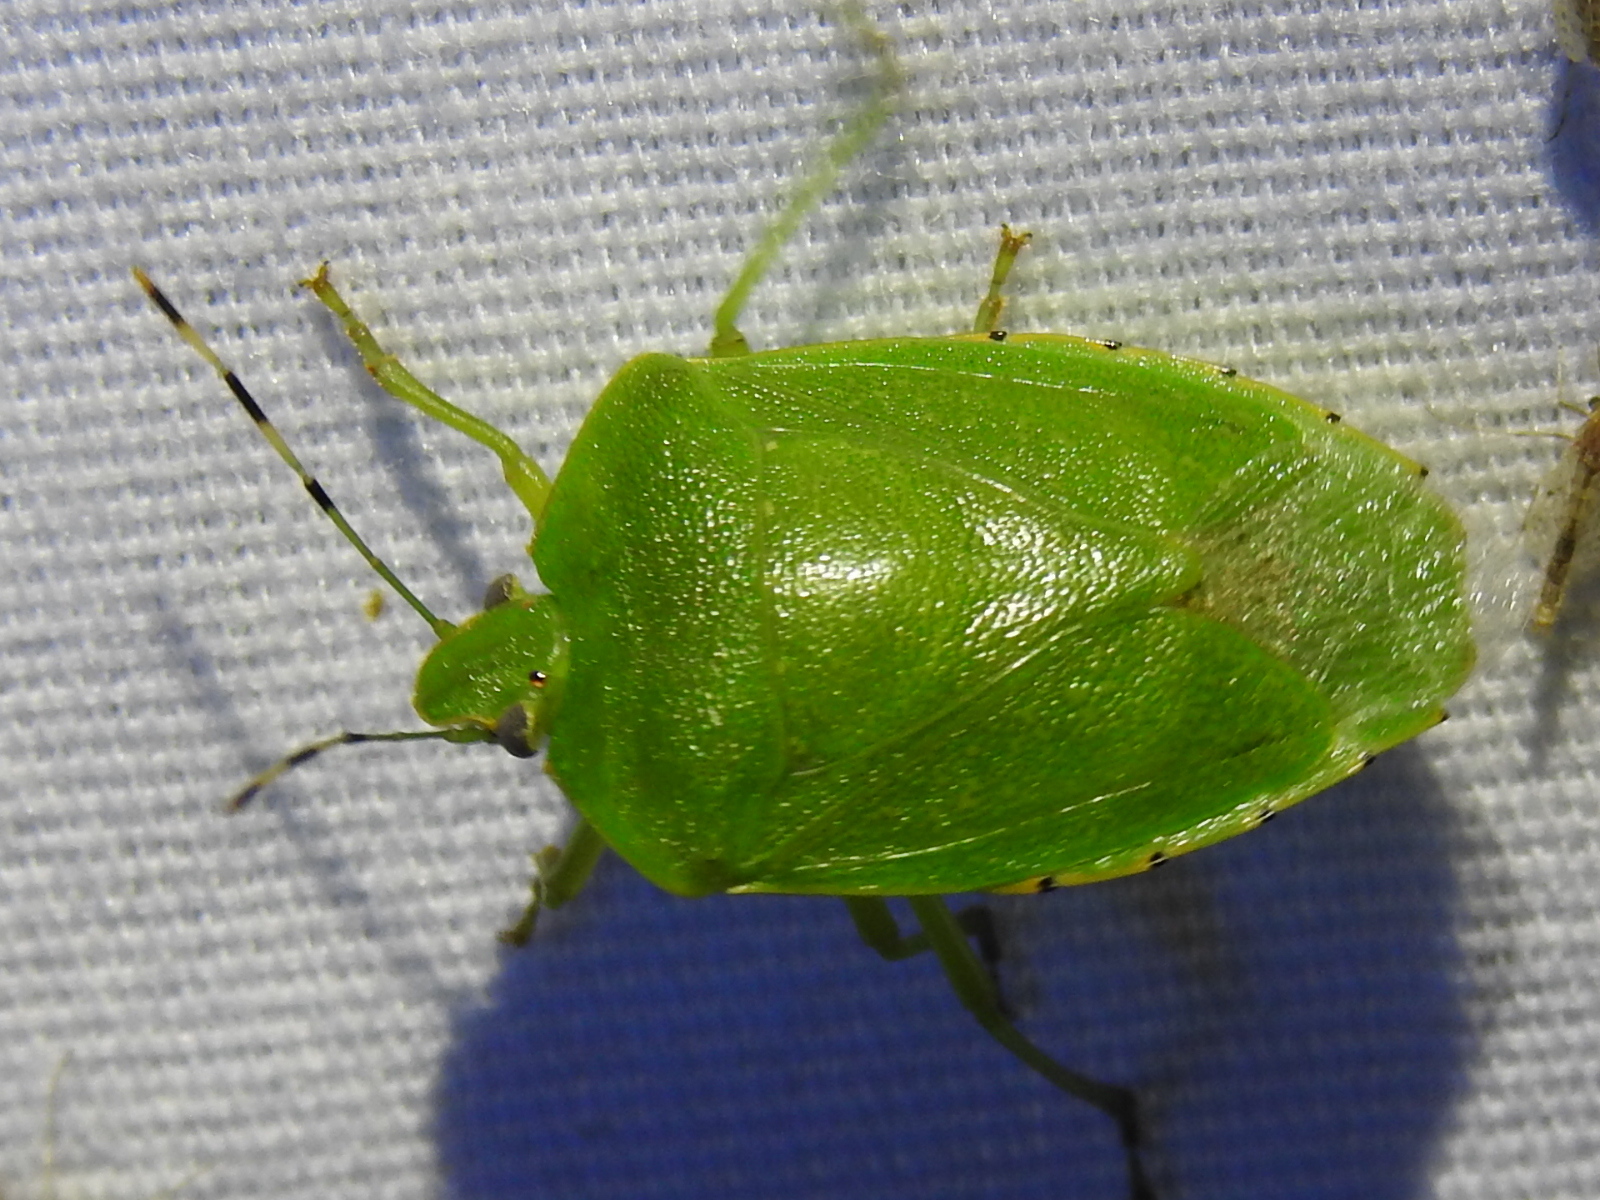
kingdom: Animalia
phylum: Arthropoda
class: Insecta
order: Hemiptera
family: Pentatomidae
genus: Chinavia
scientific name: Chinavia hilaris
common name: Green stink bug
